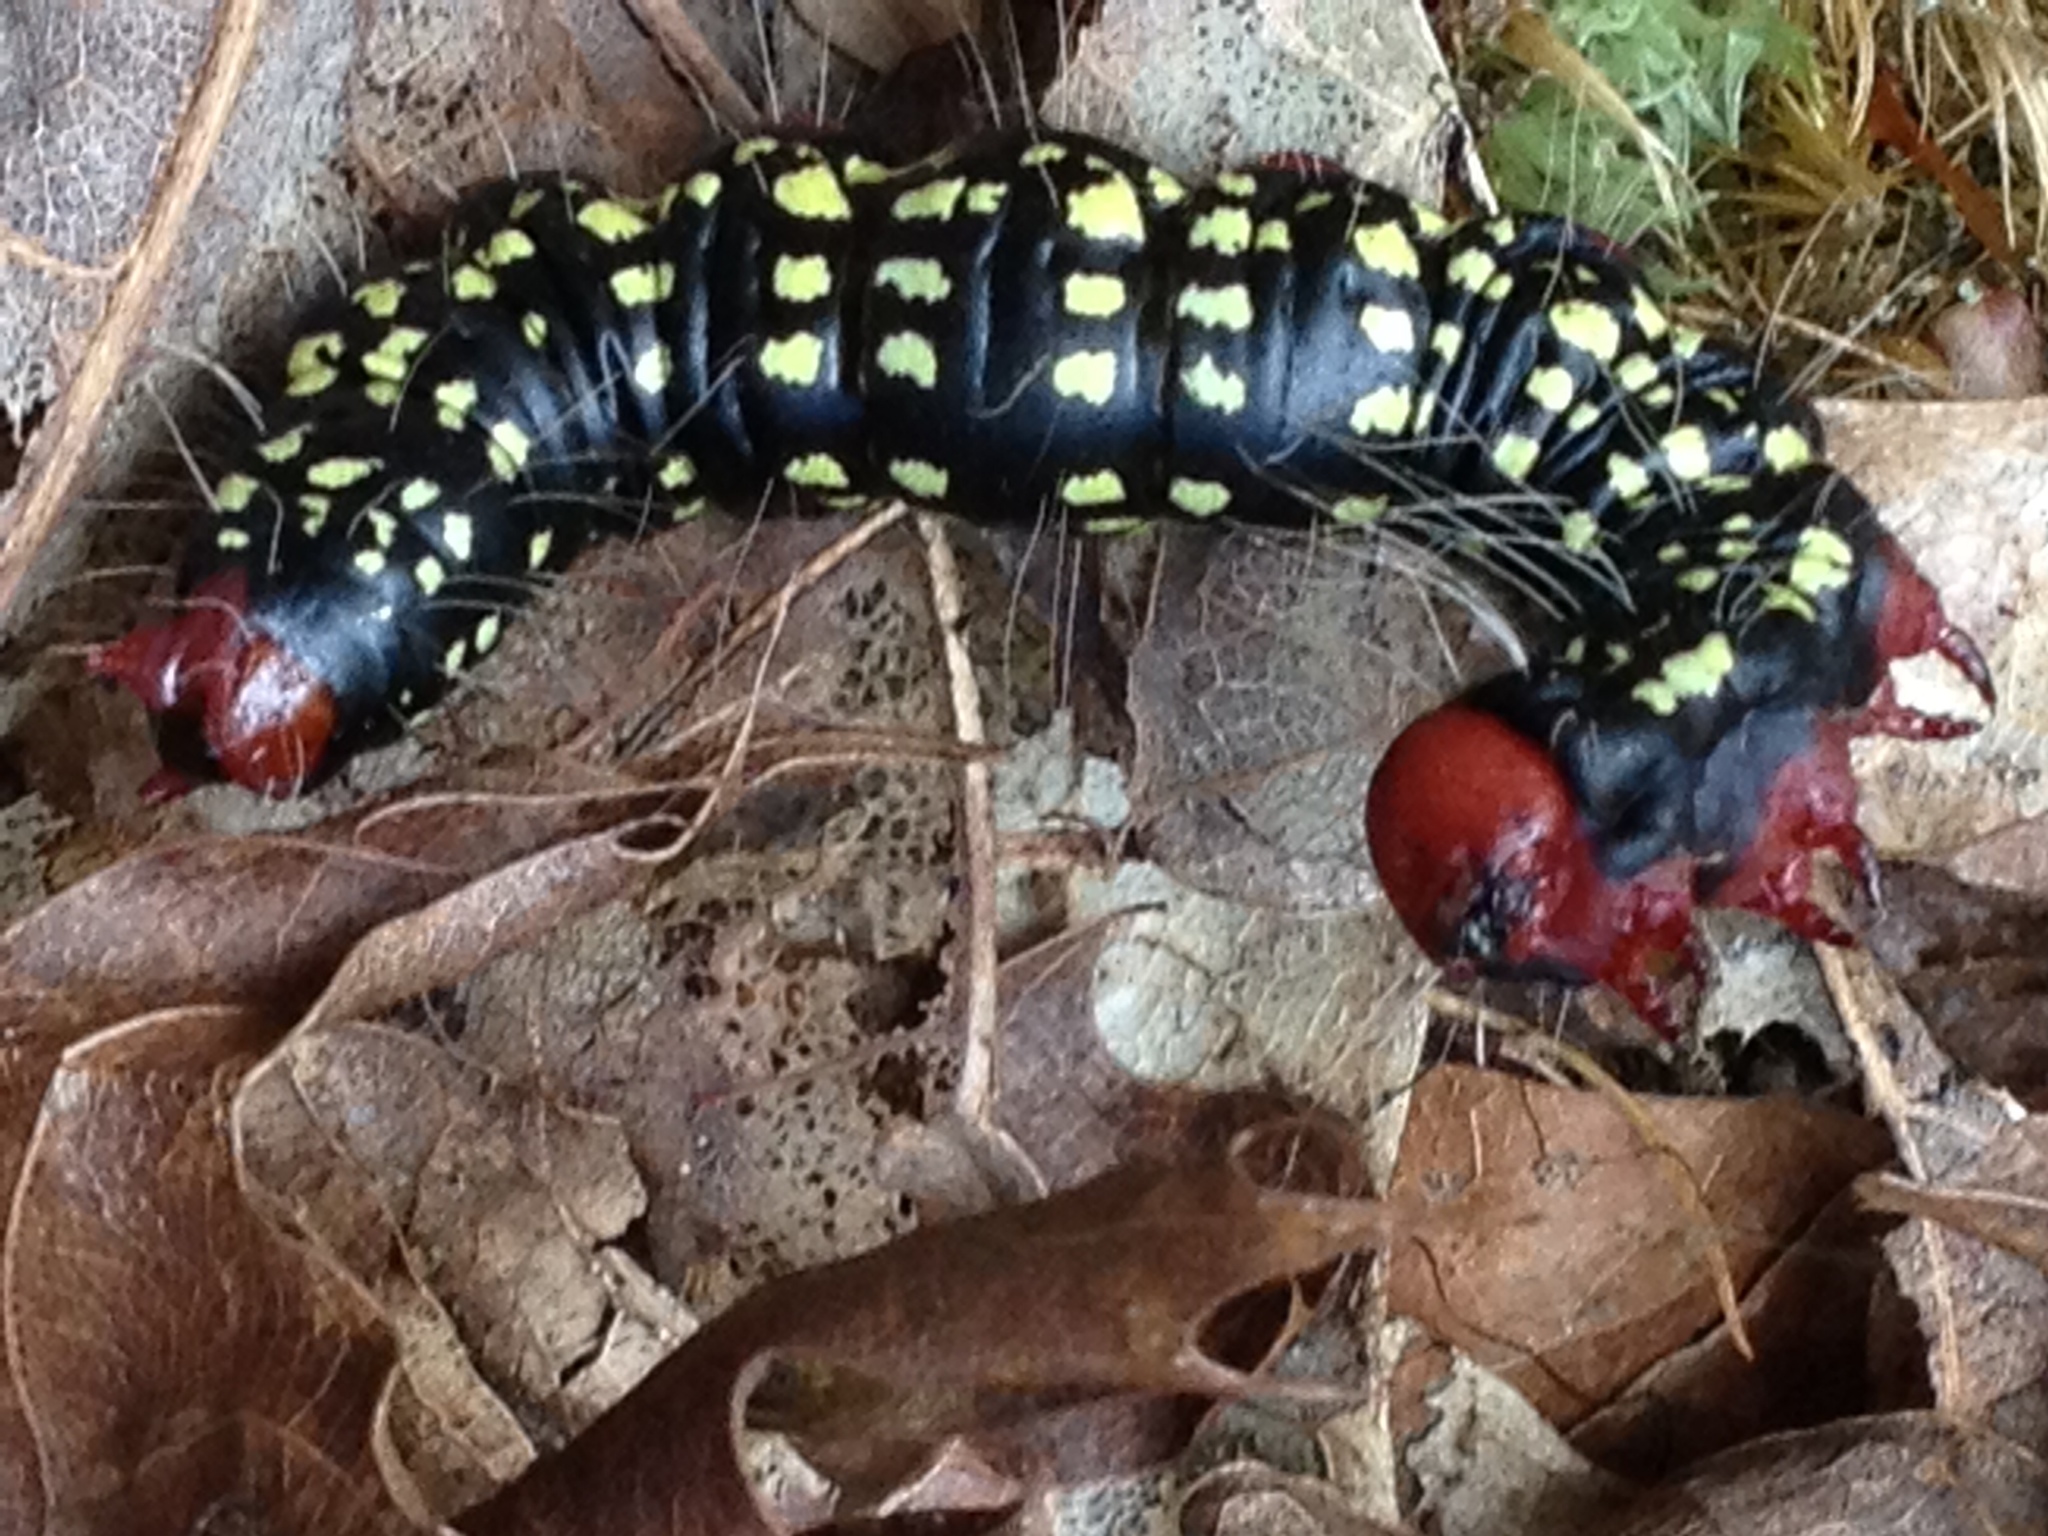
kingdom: Animalia
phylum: Arthropoda
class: Insecta
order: Lepidoptera
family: Notodontidae
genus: Datana
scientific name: Datana major
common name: Azalea caterpillar
